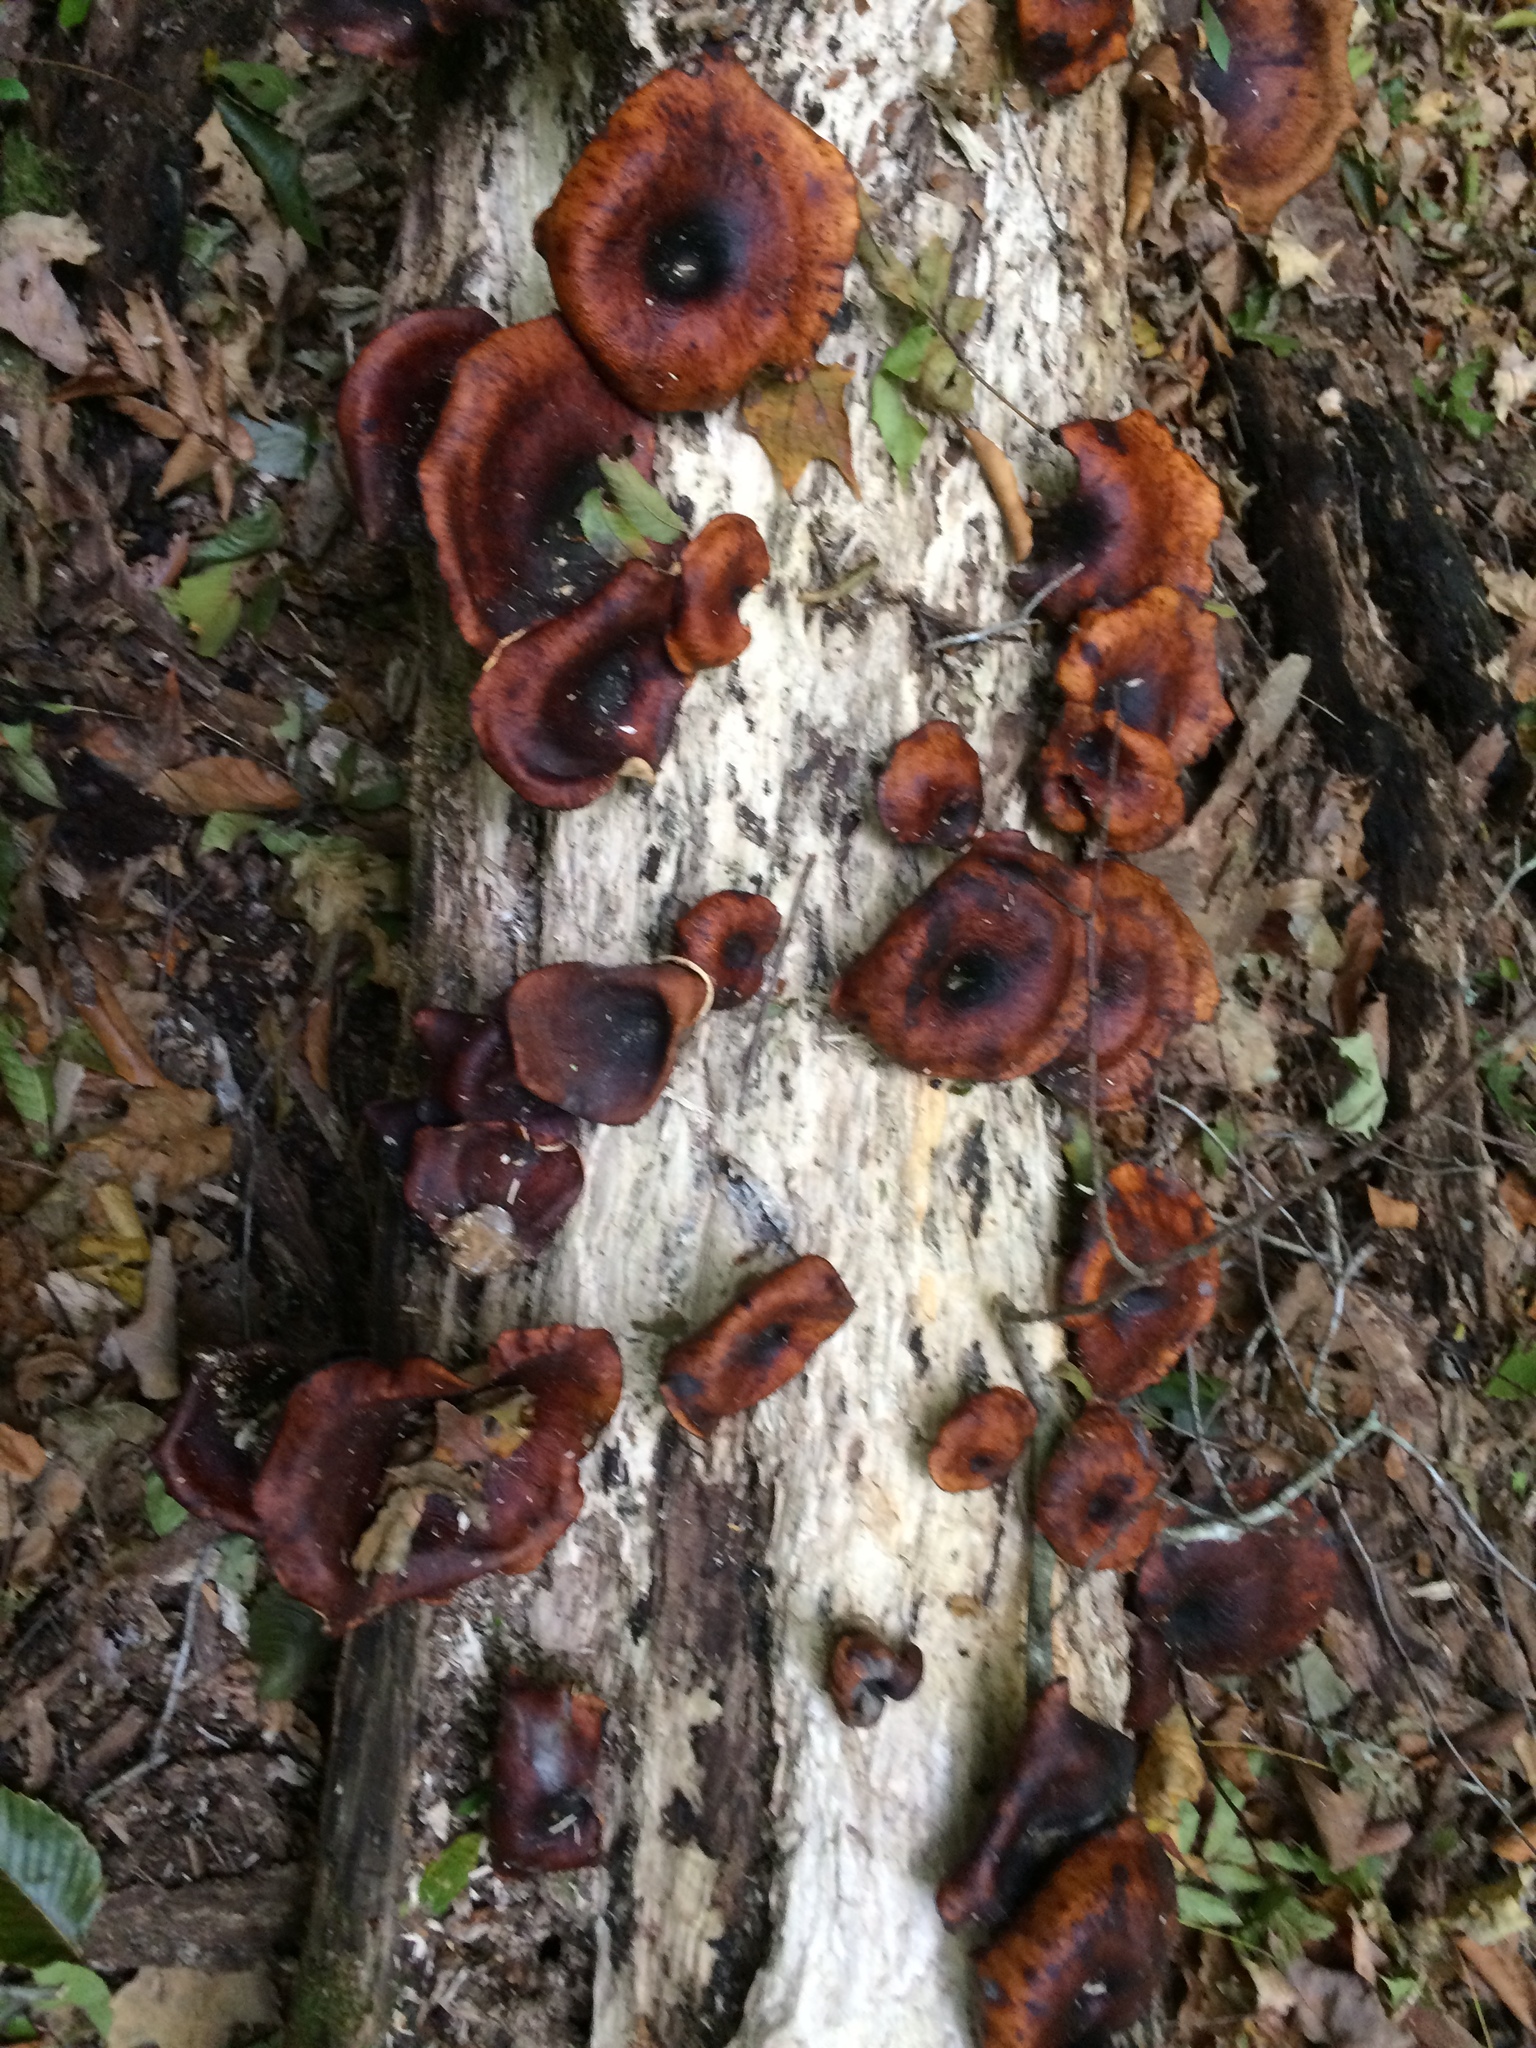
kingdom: Fungi
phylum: Basidiomycota
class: Agaricomycetes
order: Polyporales
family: Polyporaceae
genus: Picipes
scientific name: Picipes badius
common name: Bay polypore
